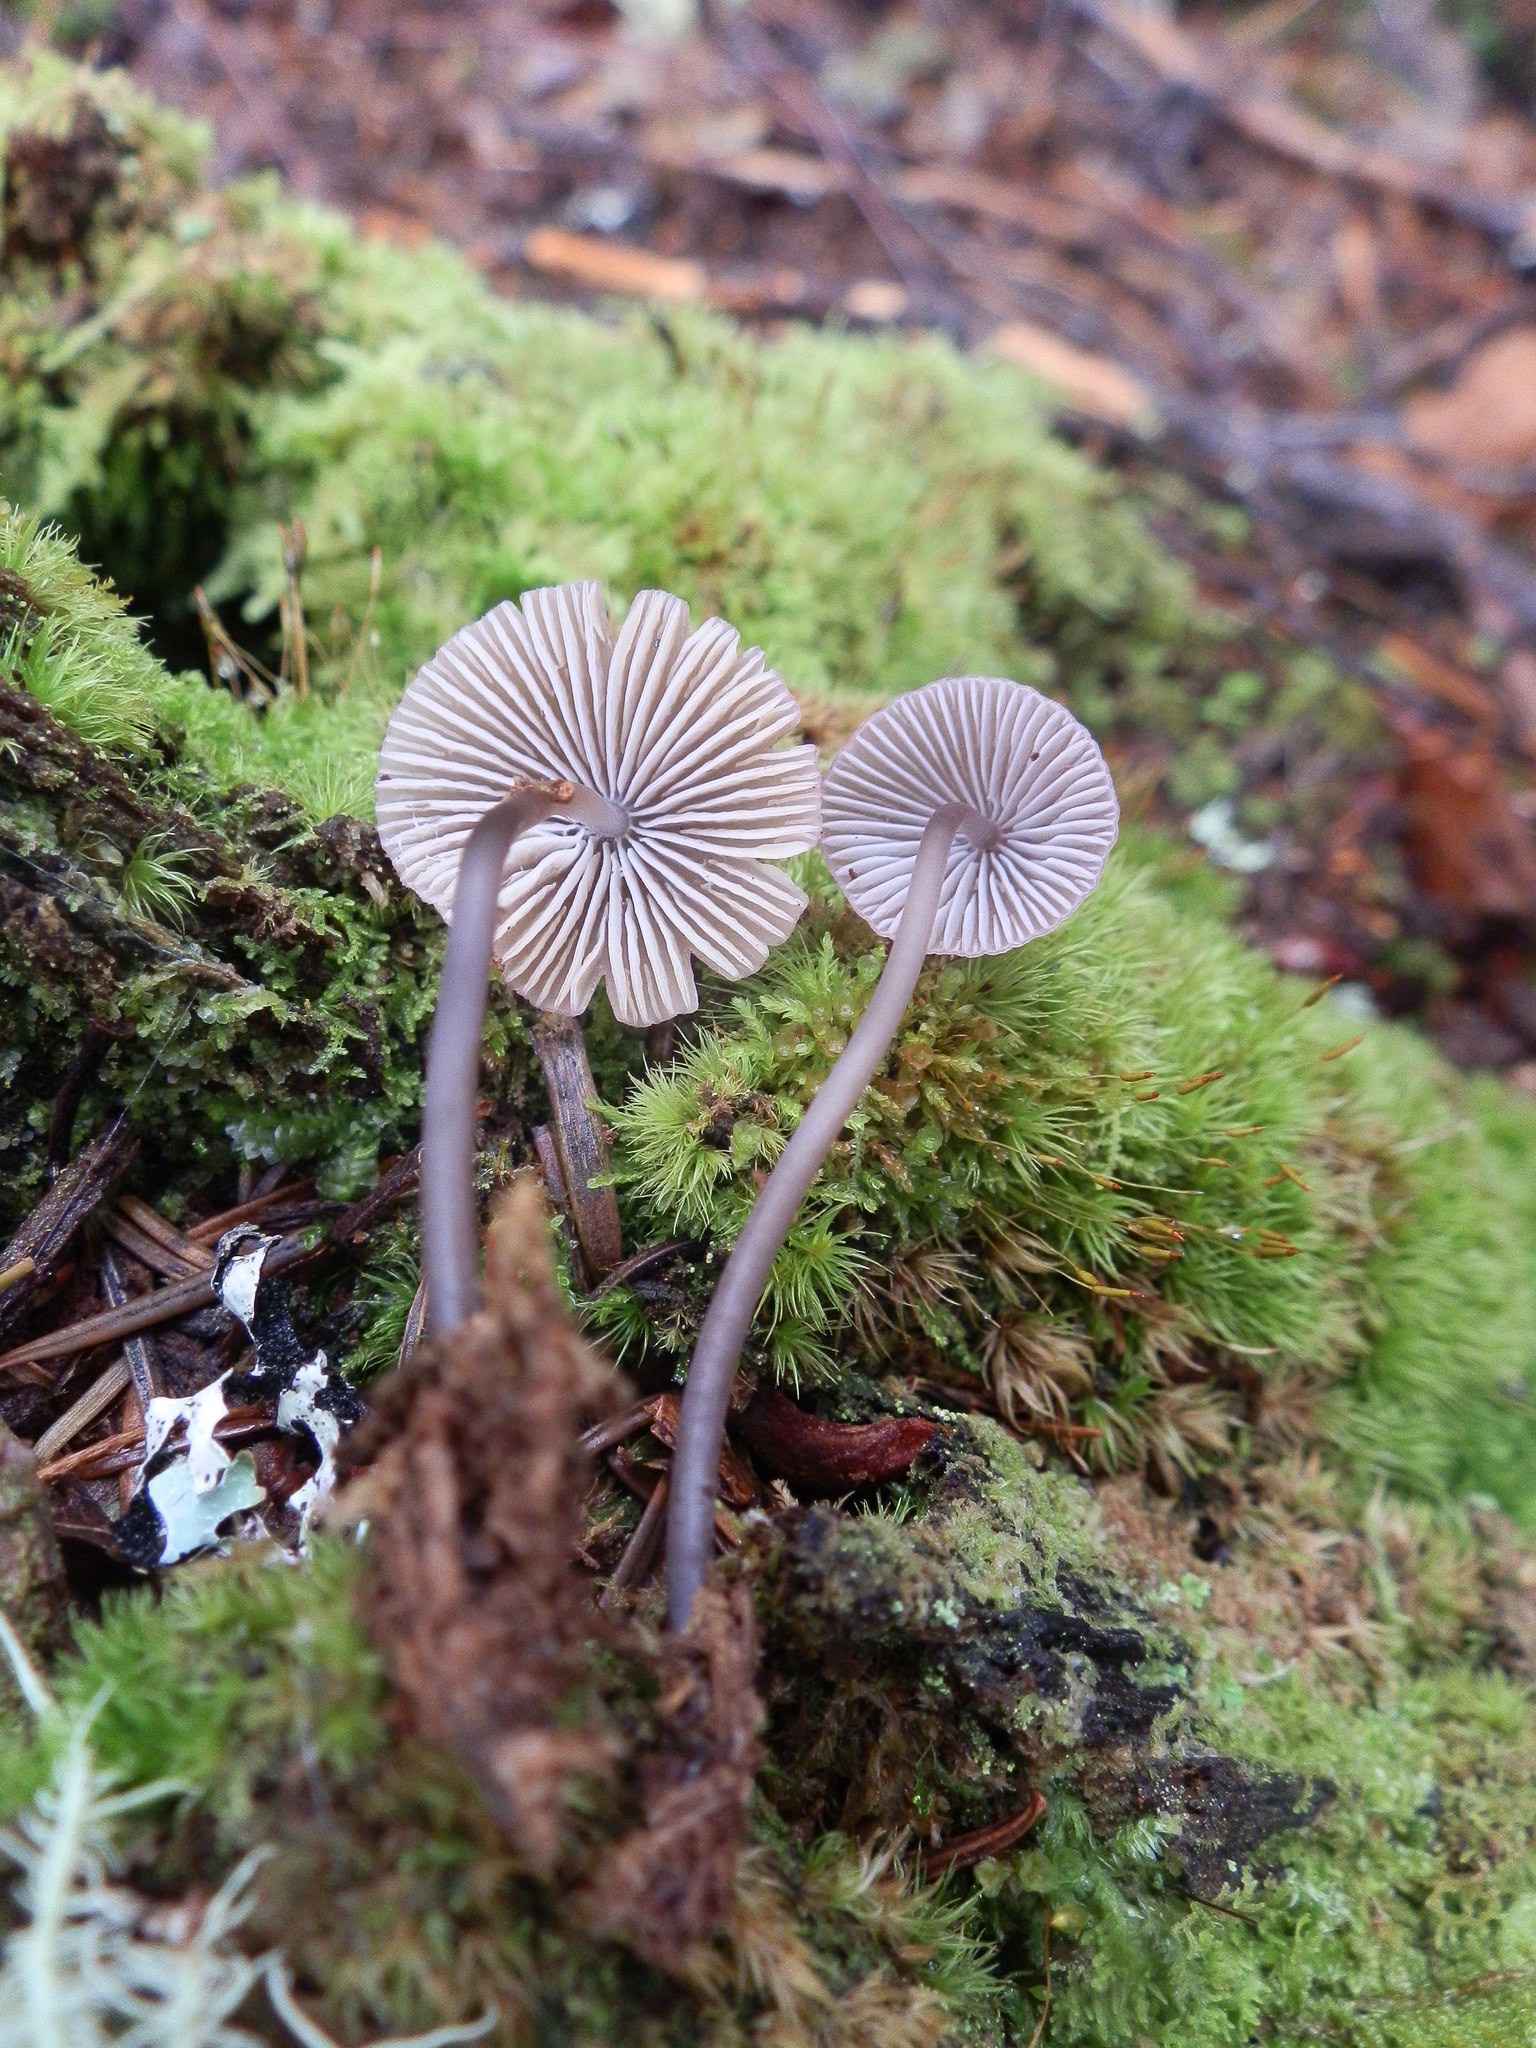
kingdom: Fungi
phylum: Basidiomycota
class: Agaricomycetes
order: Agaricales
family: Mycenaceae
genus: Mycena
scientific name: Mycena alcalina
